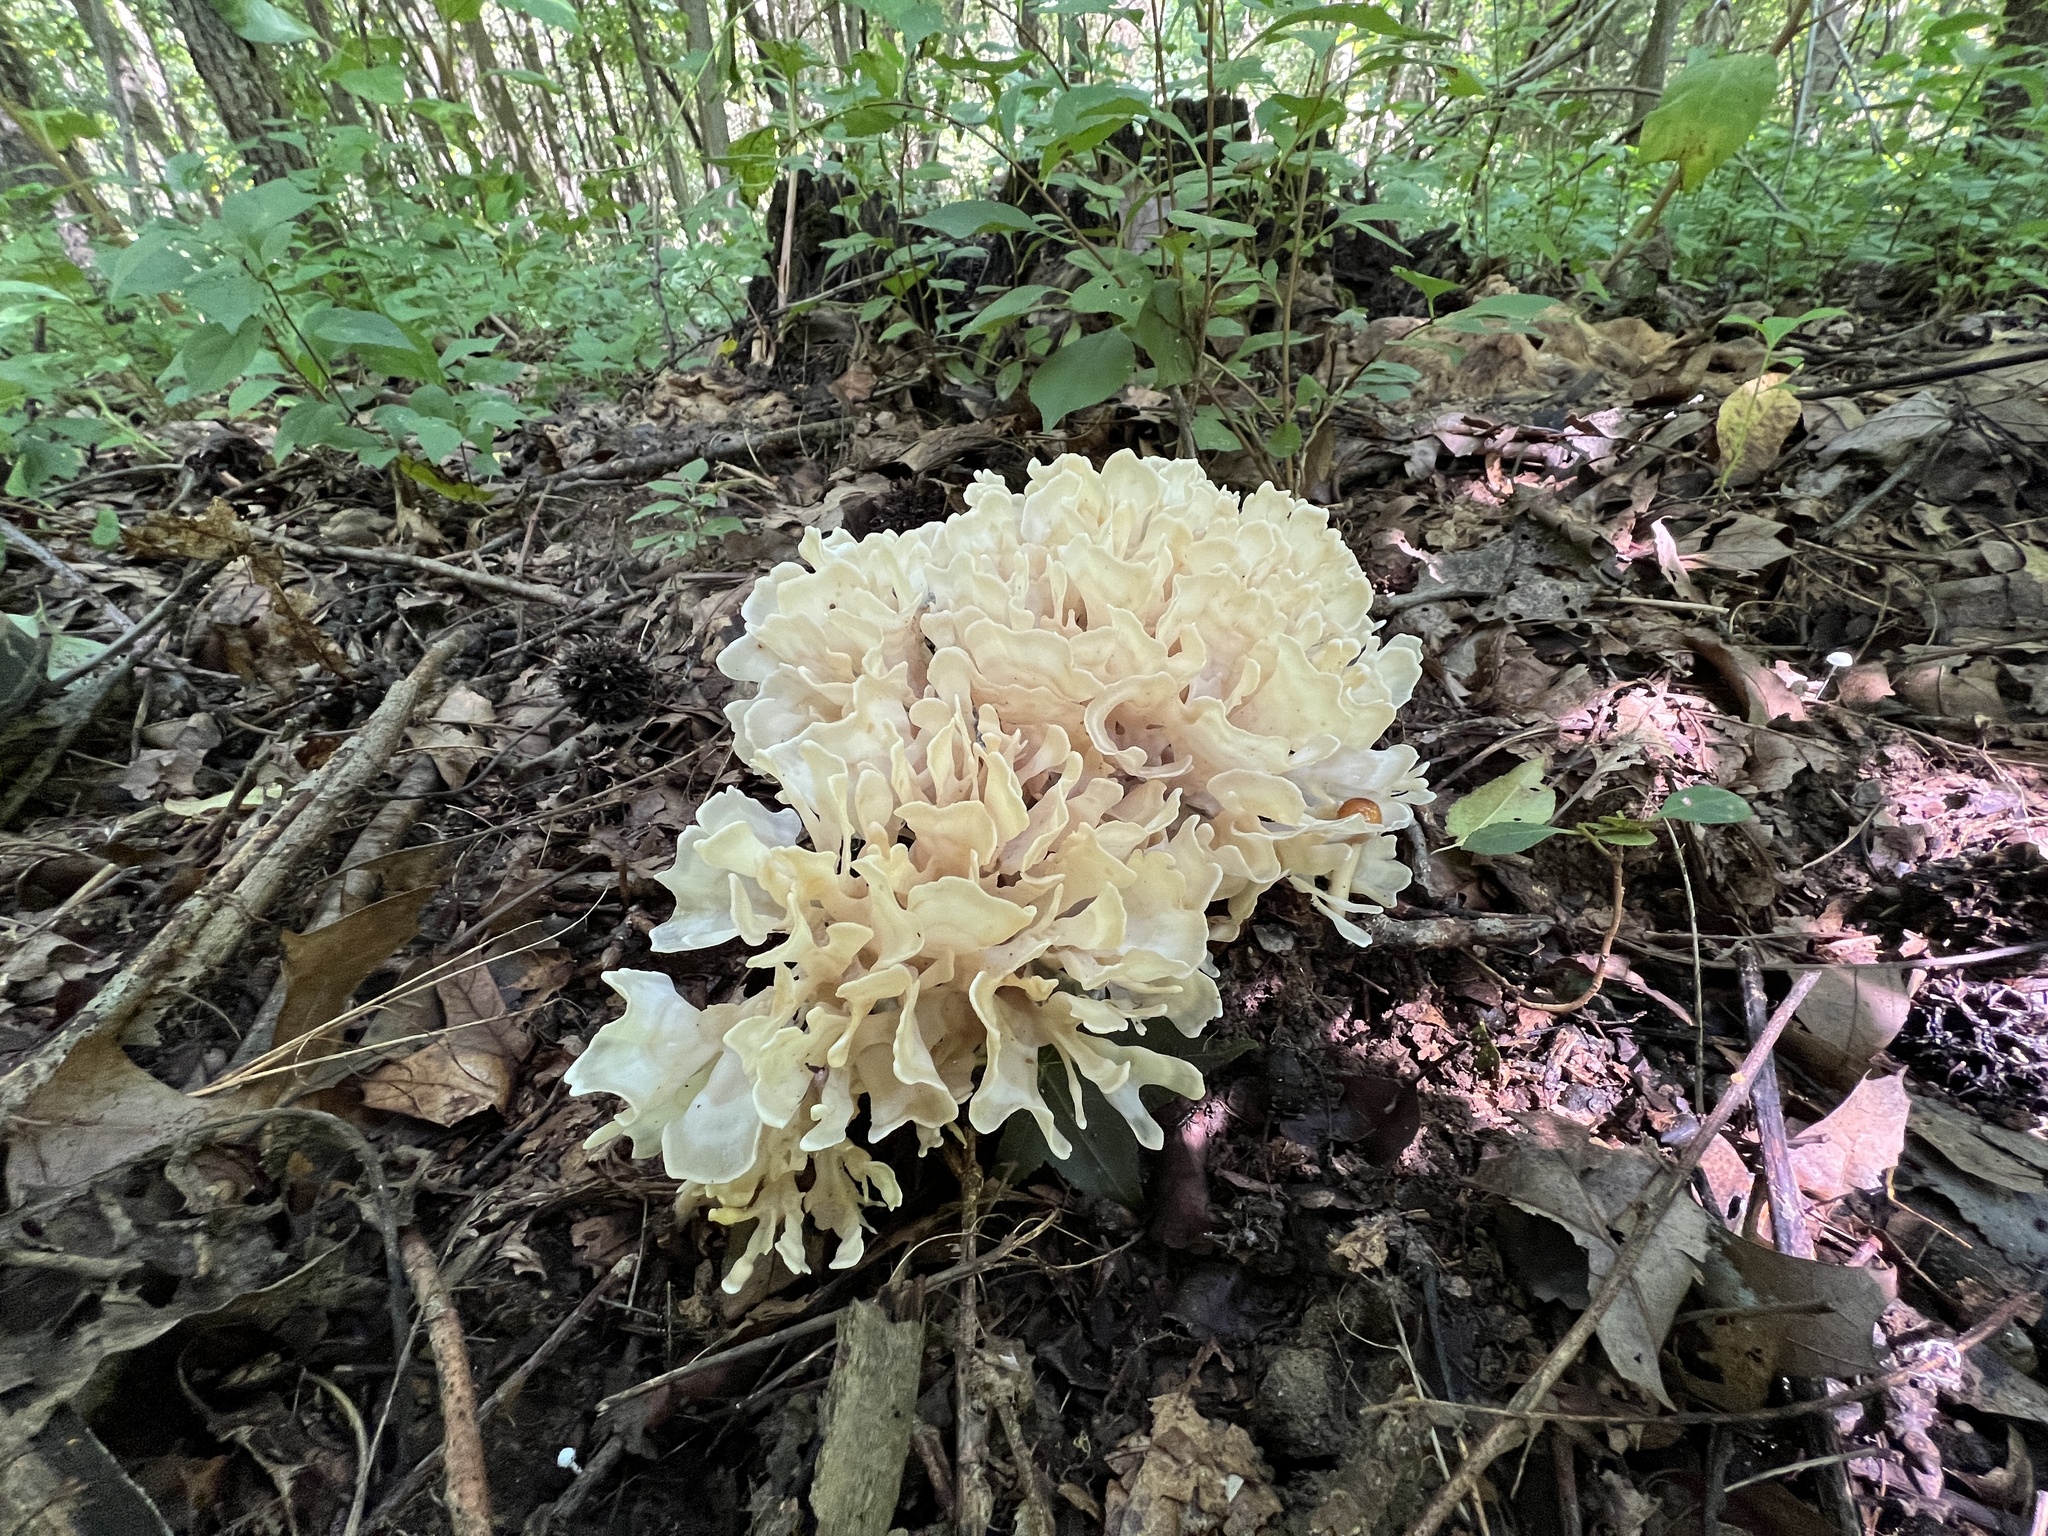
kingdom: Fungi
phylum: Basidiomycota
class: Agaricomycetes
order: Polyporales
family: Sparassidaceae
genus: Sparassis
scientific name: Sparassis spathulata
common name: Eastern cauliflower mushroom
